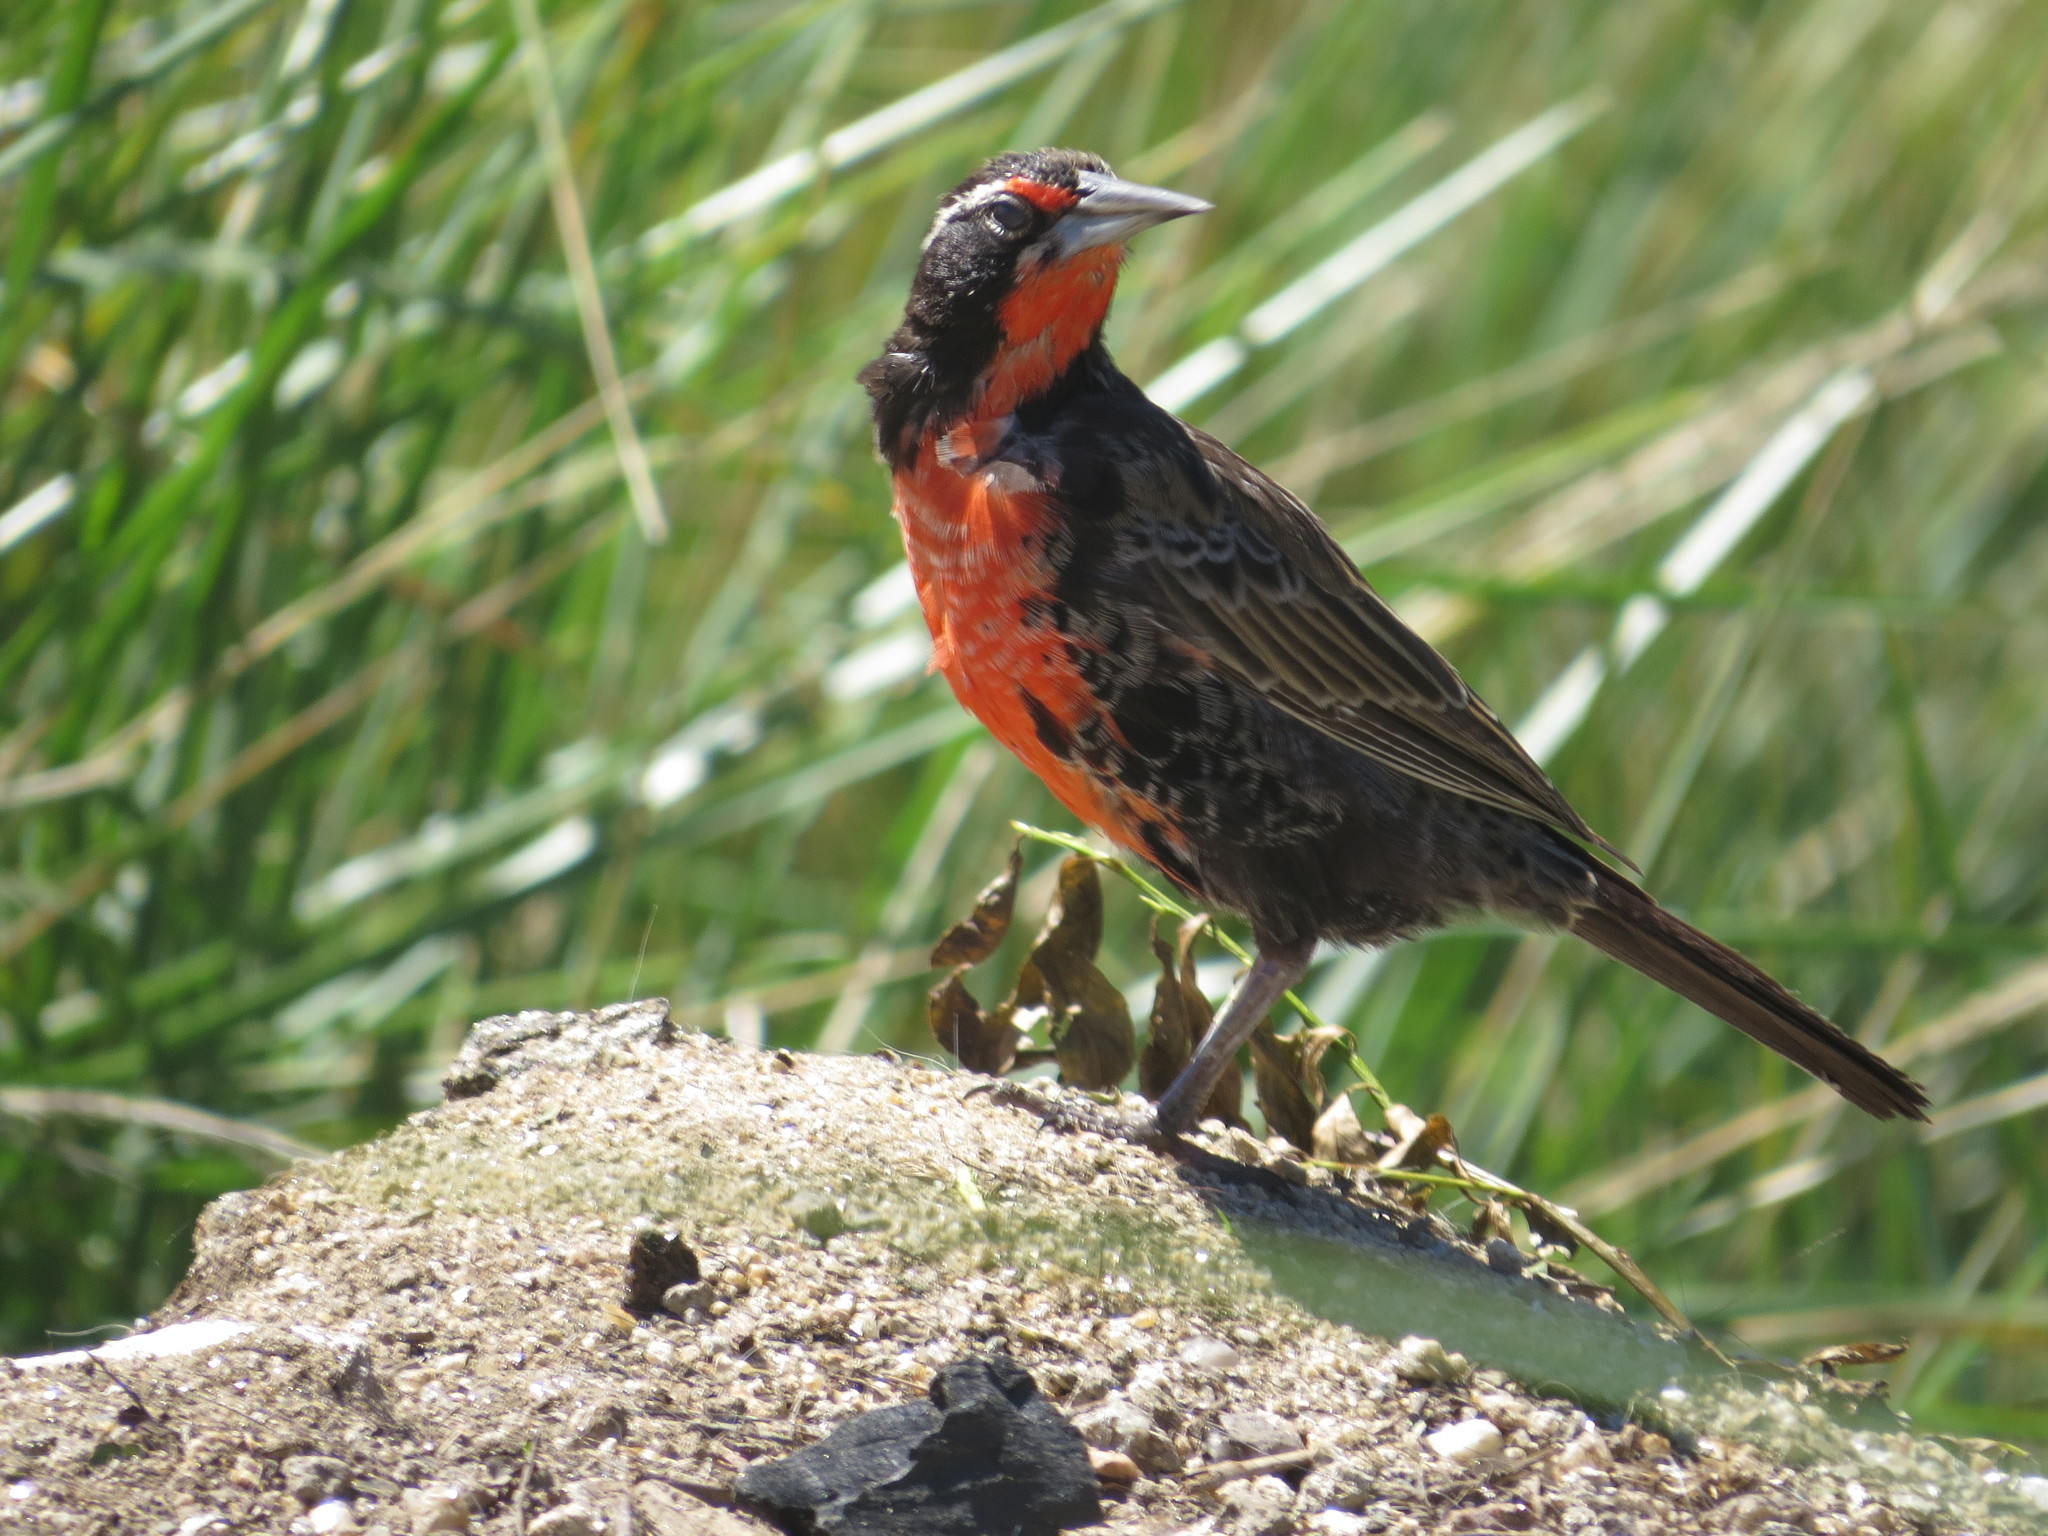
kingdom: Animalia
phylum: Chordata
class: Aves
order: Passeriformes
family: Icteridae
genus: Sturnella
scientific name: Sturnella loyca
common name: Long-tailed meadowlark
